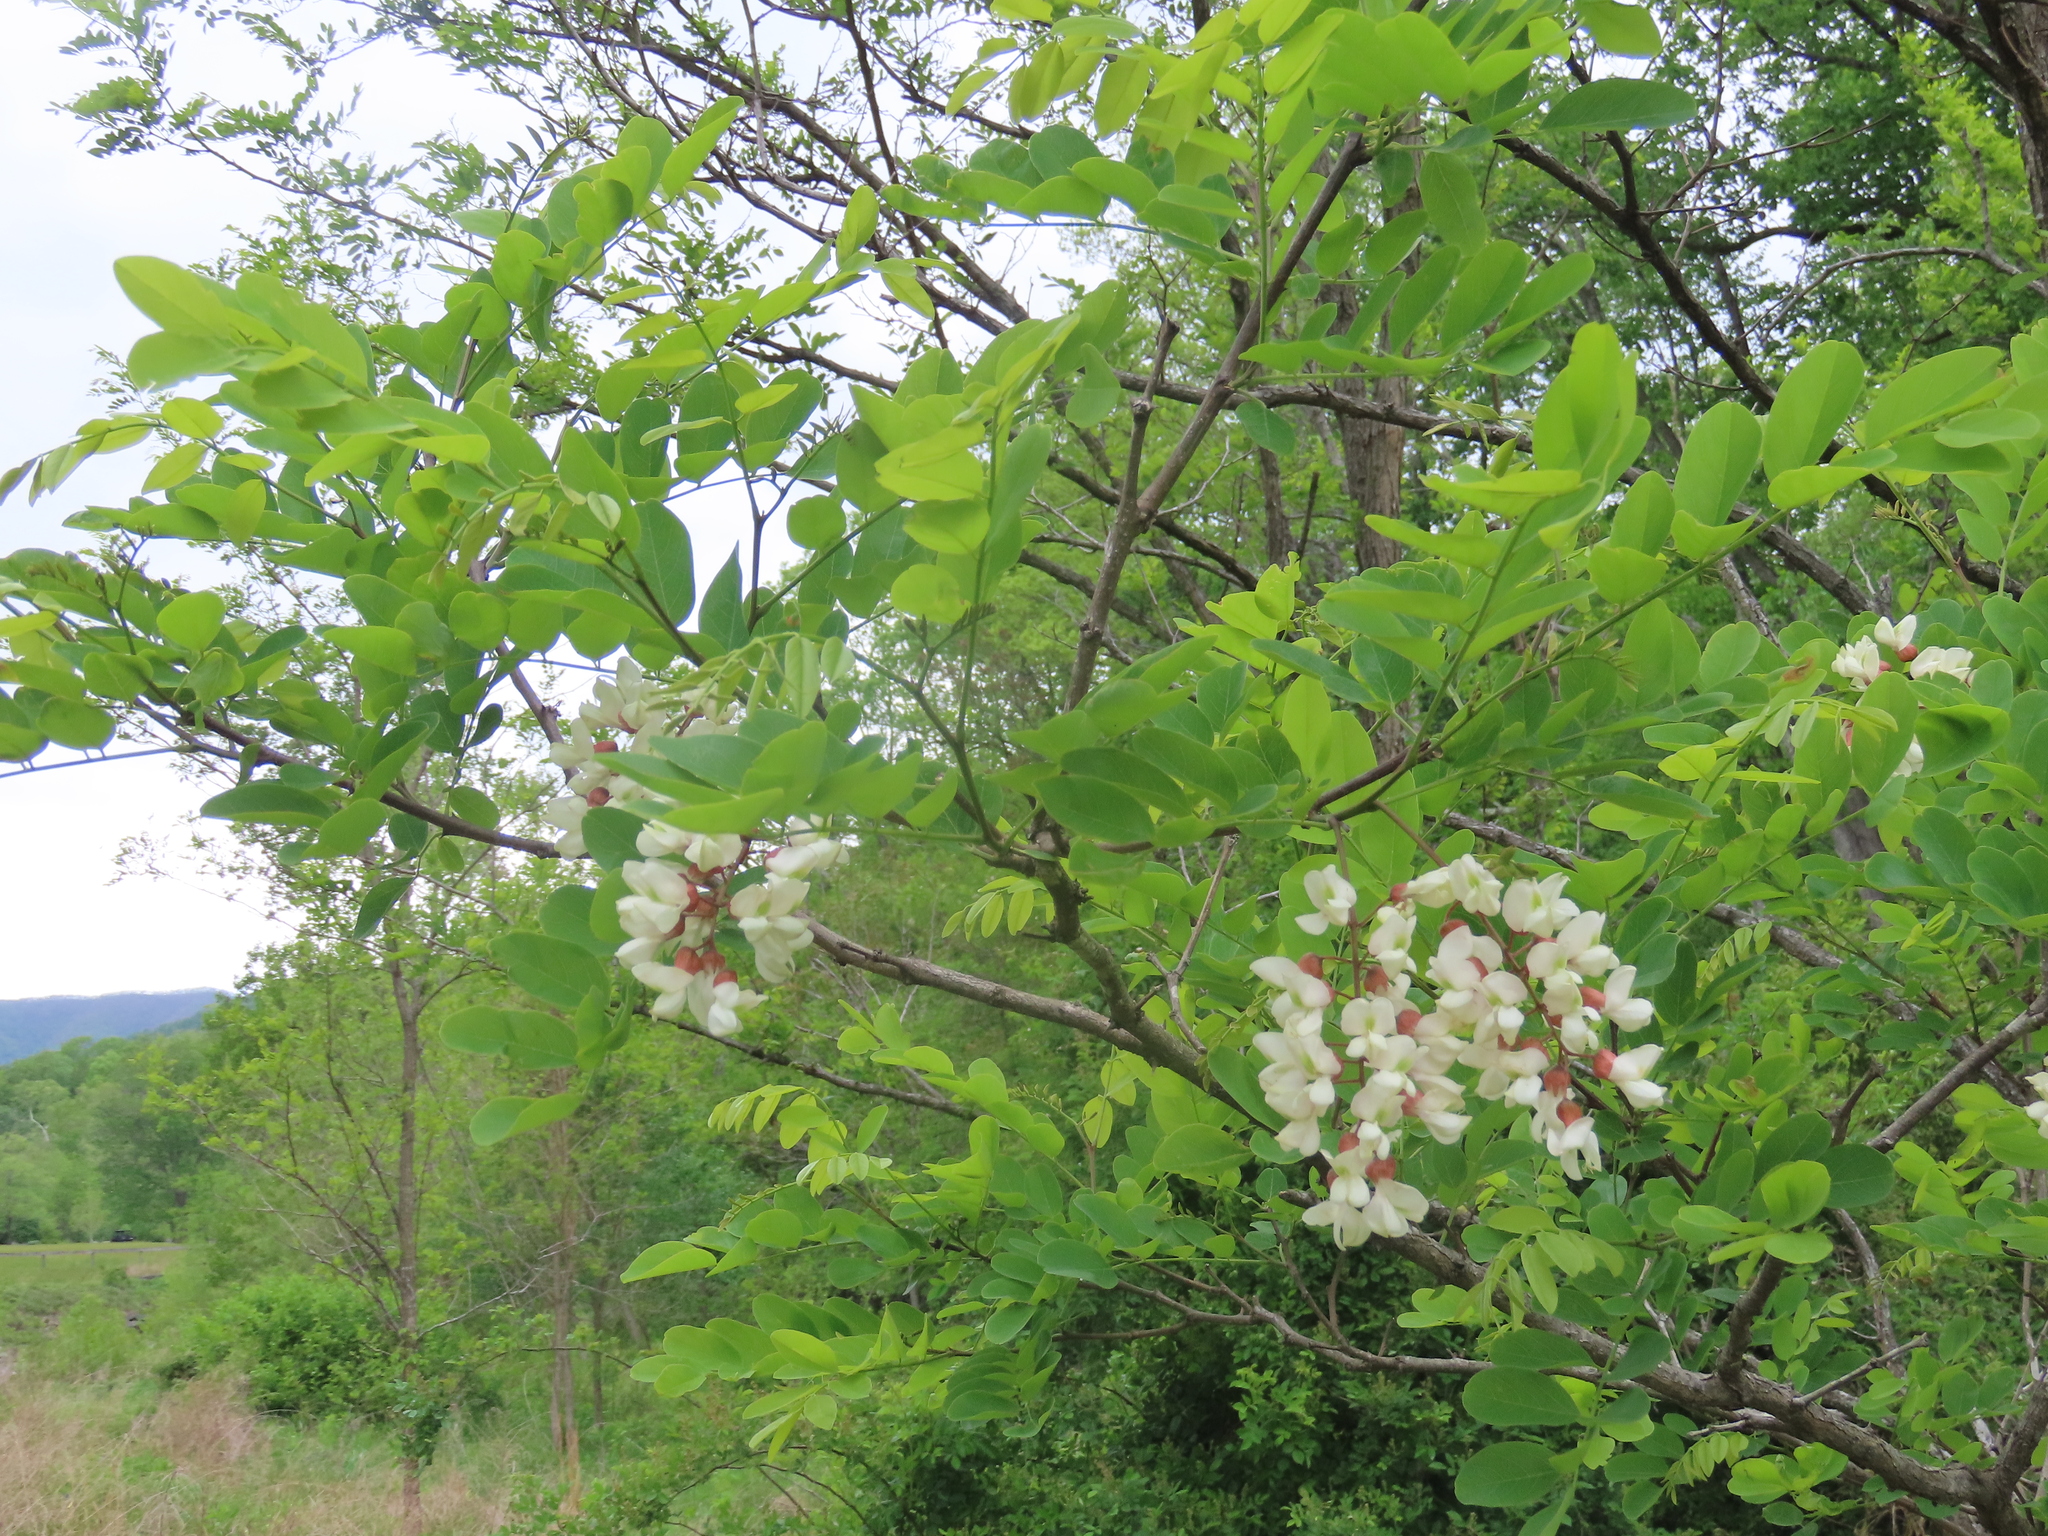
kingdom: Plantae
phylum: Tracheophyta
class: Magnoliopsida
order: Fabales
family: Fabaceae
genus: Robinia
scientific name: Robinia pseudoacacia
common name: Black locust
